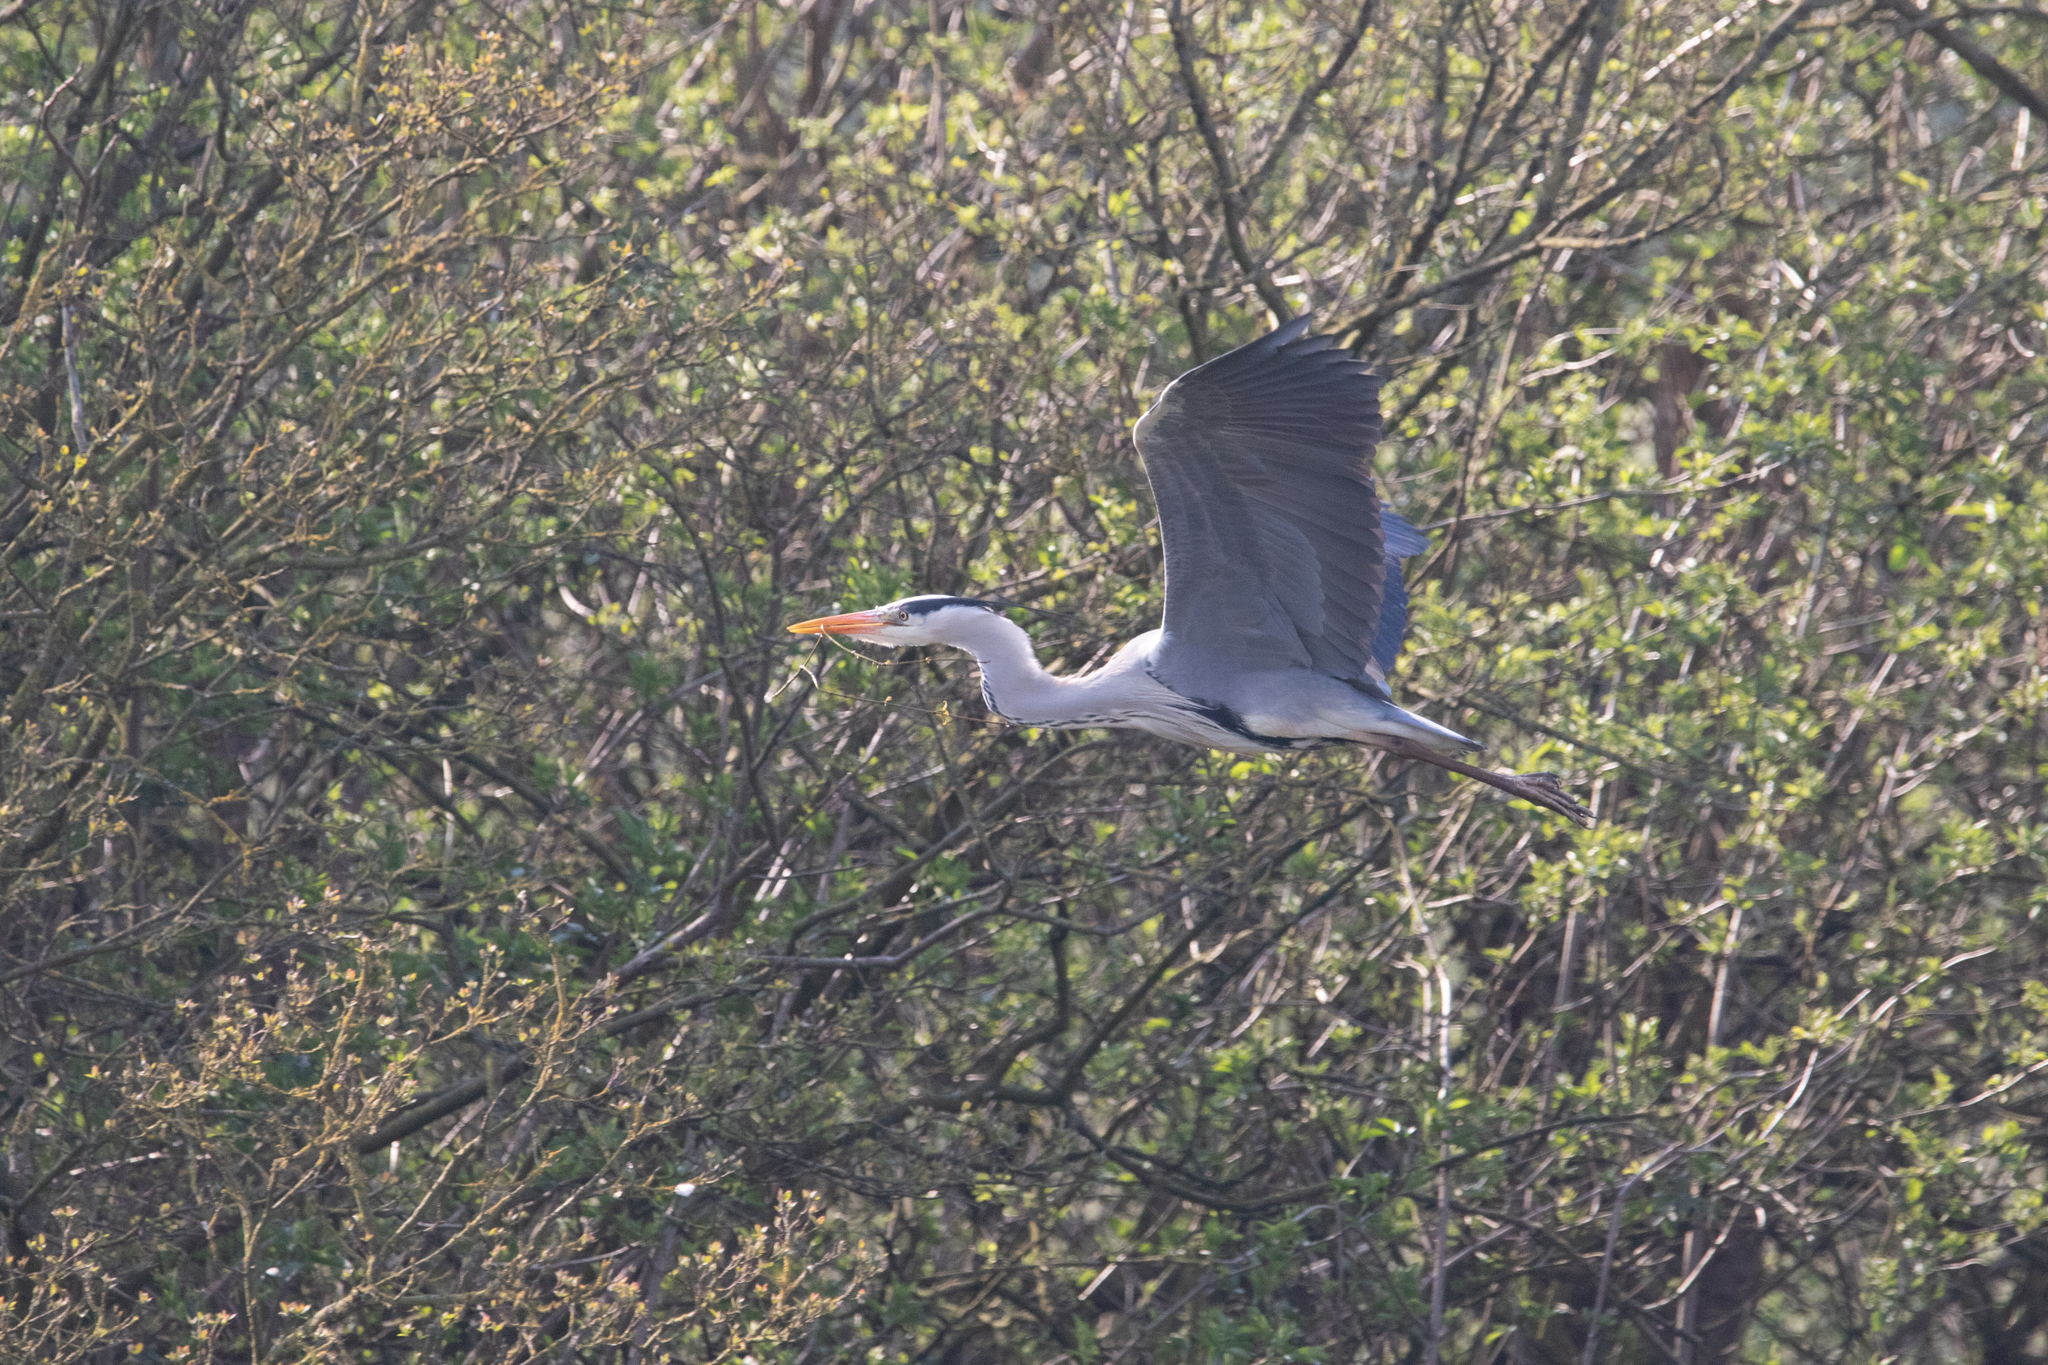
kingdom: Animalia
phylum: Chordata
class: Aves
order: Pelecaniformes
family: Ardeidae
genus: Ardea
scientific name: Ardea cinerea
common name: Grey heron
